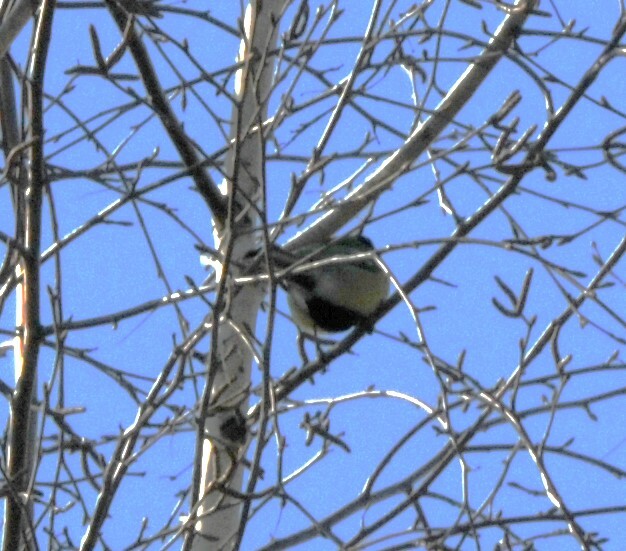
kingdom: Animalia
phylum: Chordata
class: Aves
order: Passeriformes
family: Paridae
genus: Parus
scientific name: Parus major
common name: Great tit
